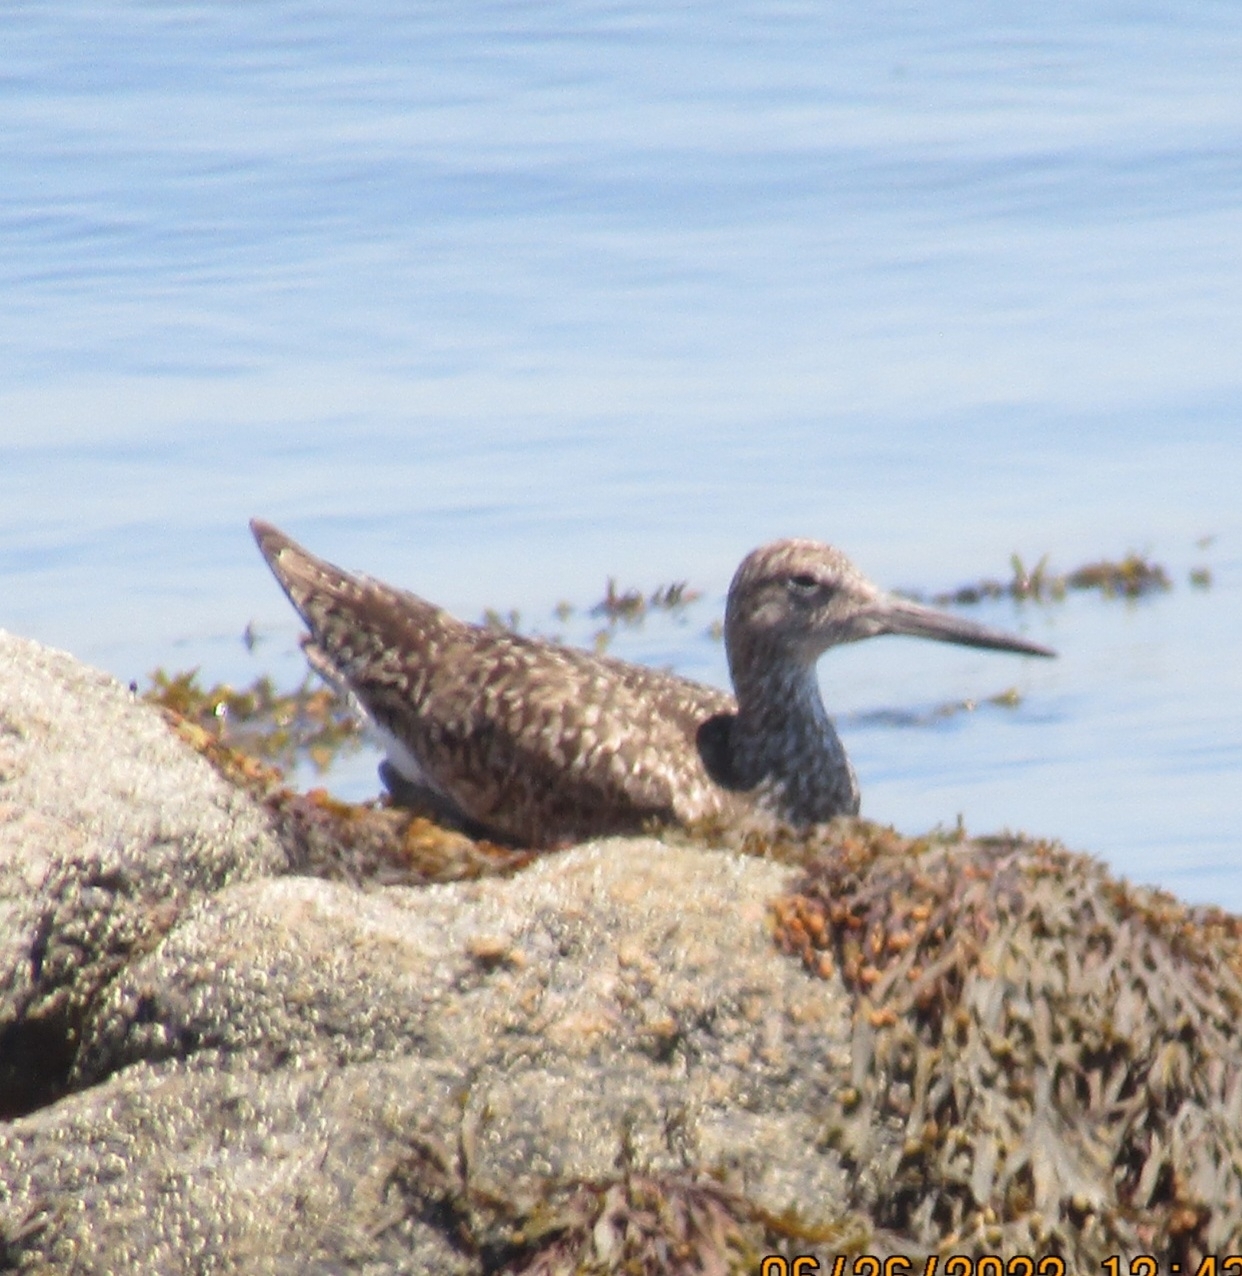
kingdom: Animalia
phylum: Chordata
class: Aves
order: Charadriiformes
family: Scolopacidae
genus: Tringa
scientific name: Tringa semipalmata
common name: Willet
